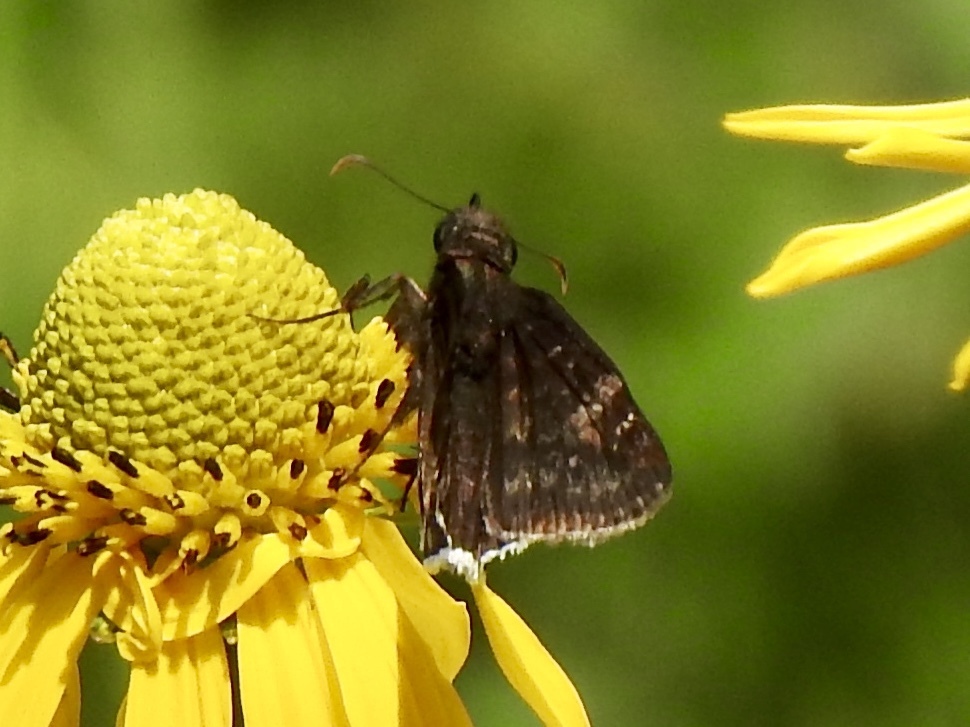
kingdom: Animalia
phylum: Arthropoda
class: Insecta
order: Lepidoptera
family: Hesperiidae
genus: Erynnis
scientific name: Erynnis funeralis
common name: Funereal duskywing
